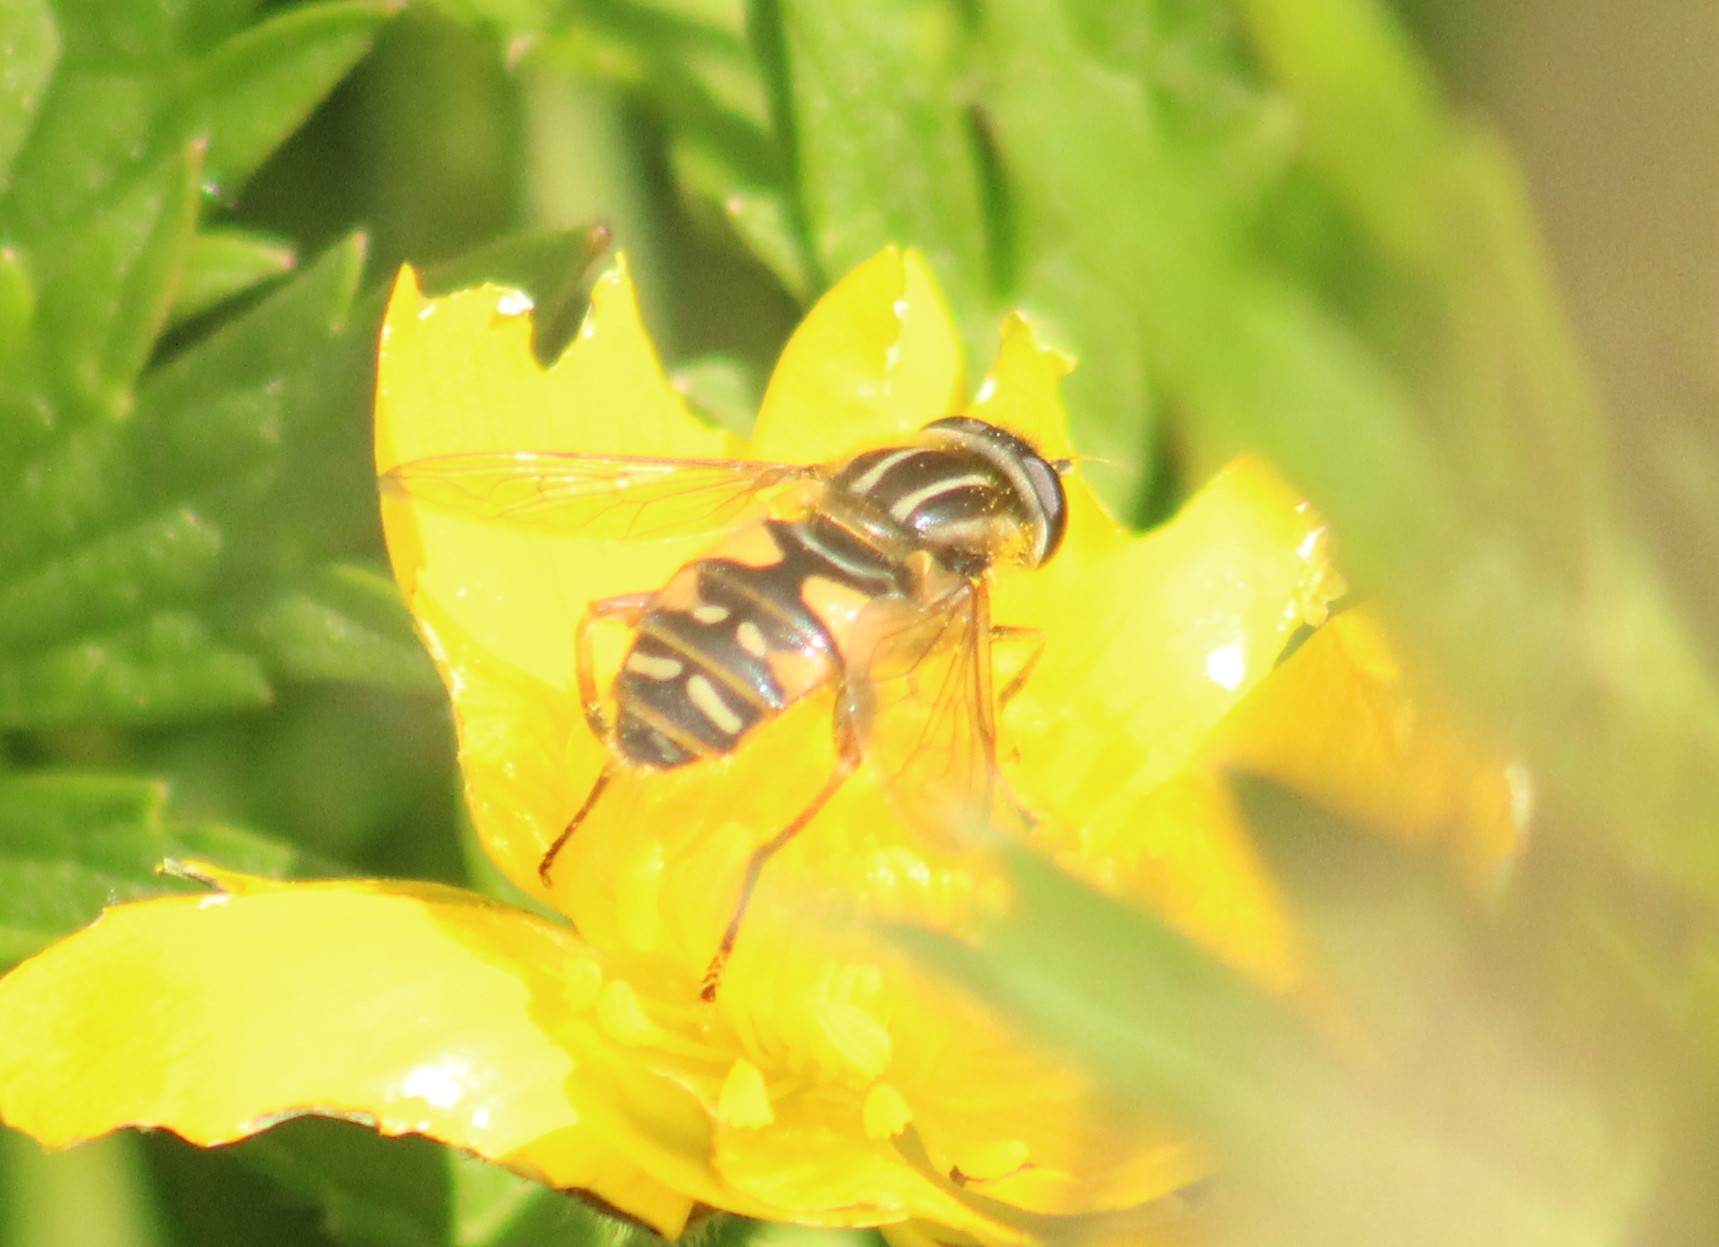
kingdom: Animalia
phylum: Arthropoda
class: Insecta
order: Diptera
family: Syrphidae
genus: Helophilus
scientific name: Helophilus pendulus
